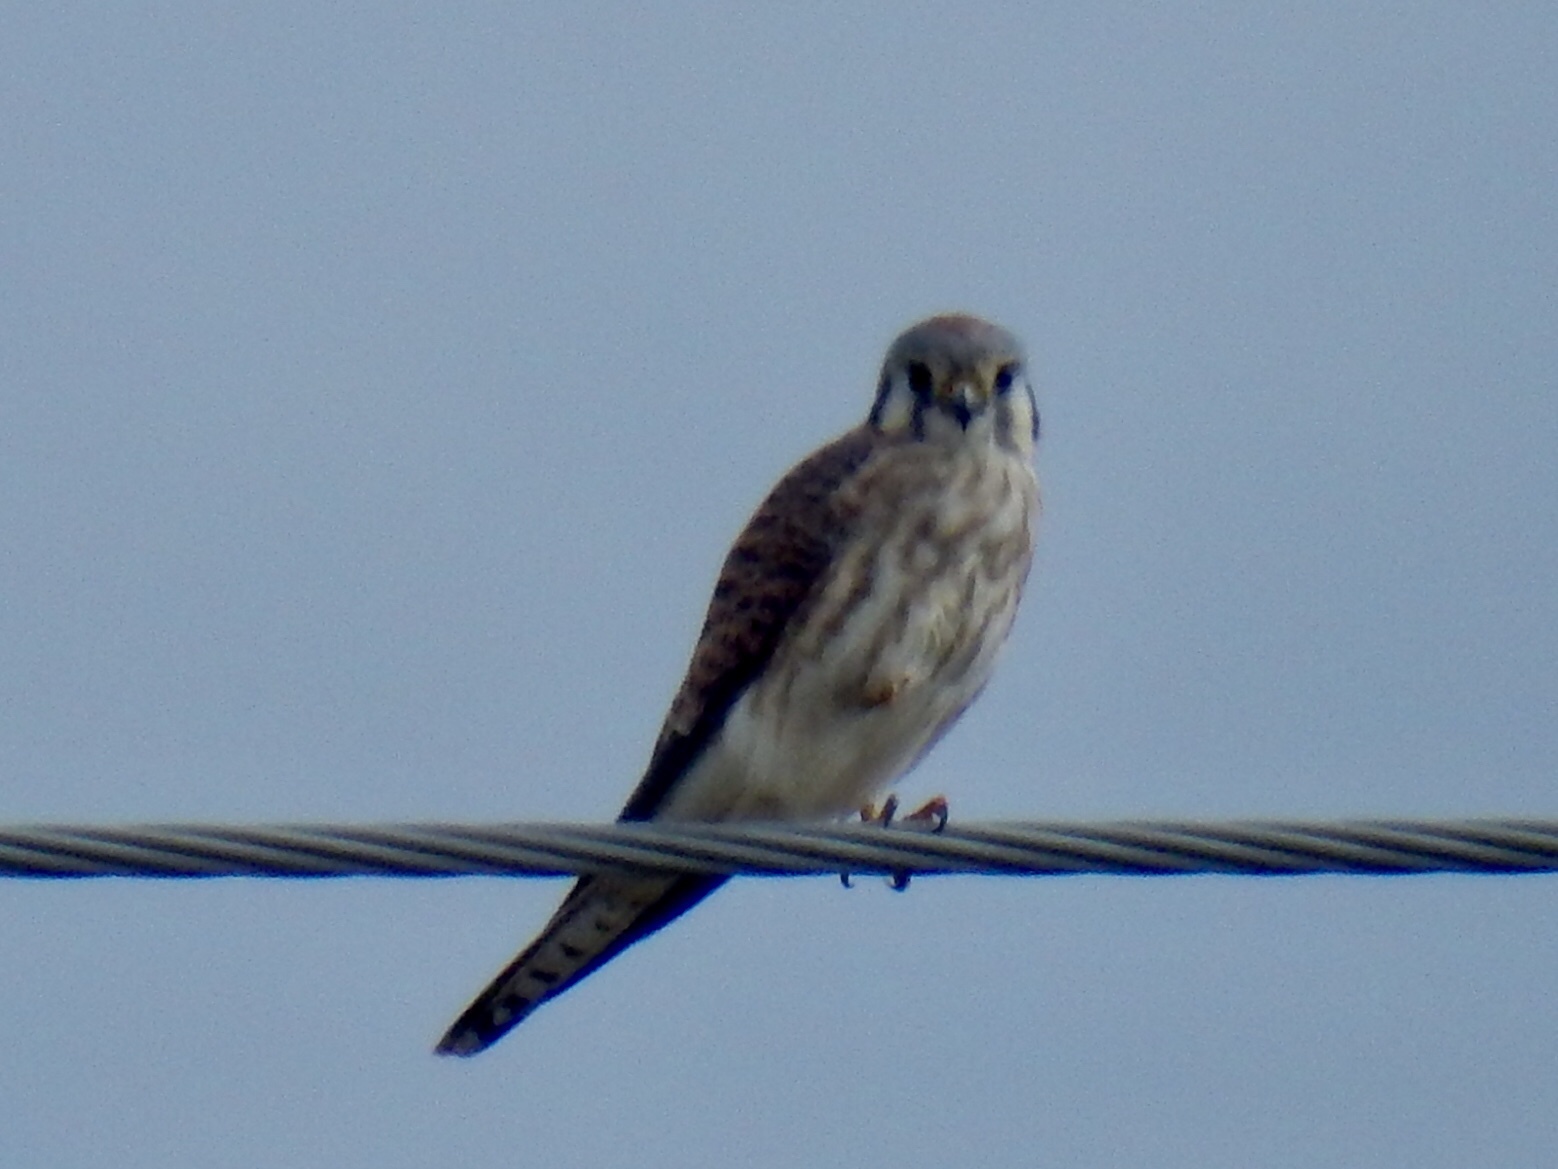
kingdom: Animalia
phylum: Chordata
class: Aves
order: Falconiformes
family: Falconidae
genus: Falco
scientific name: Falco sparverius
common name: American kestrel
